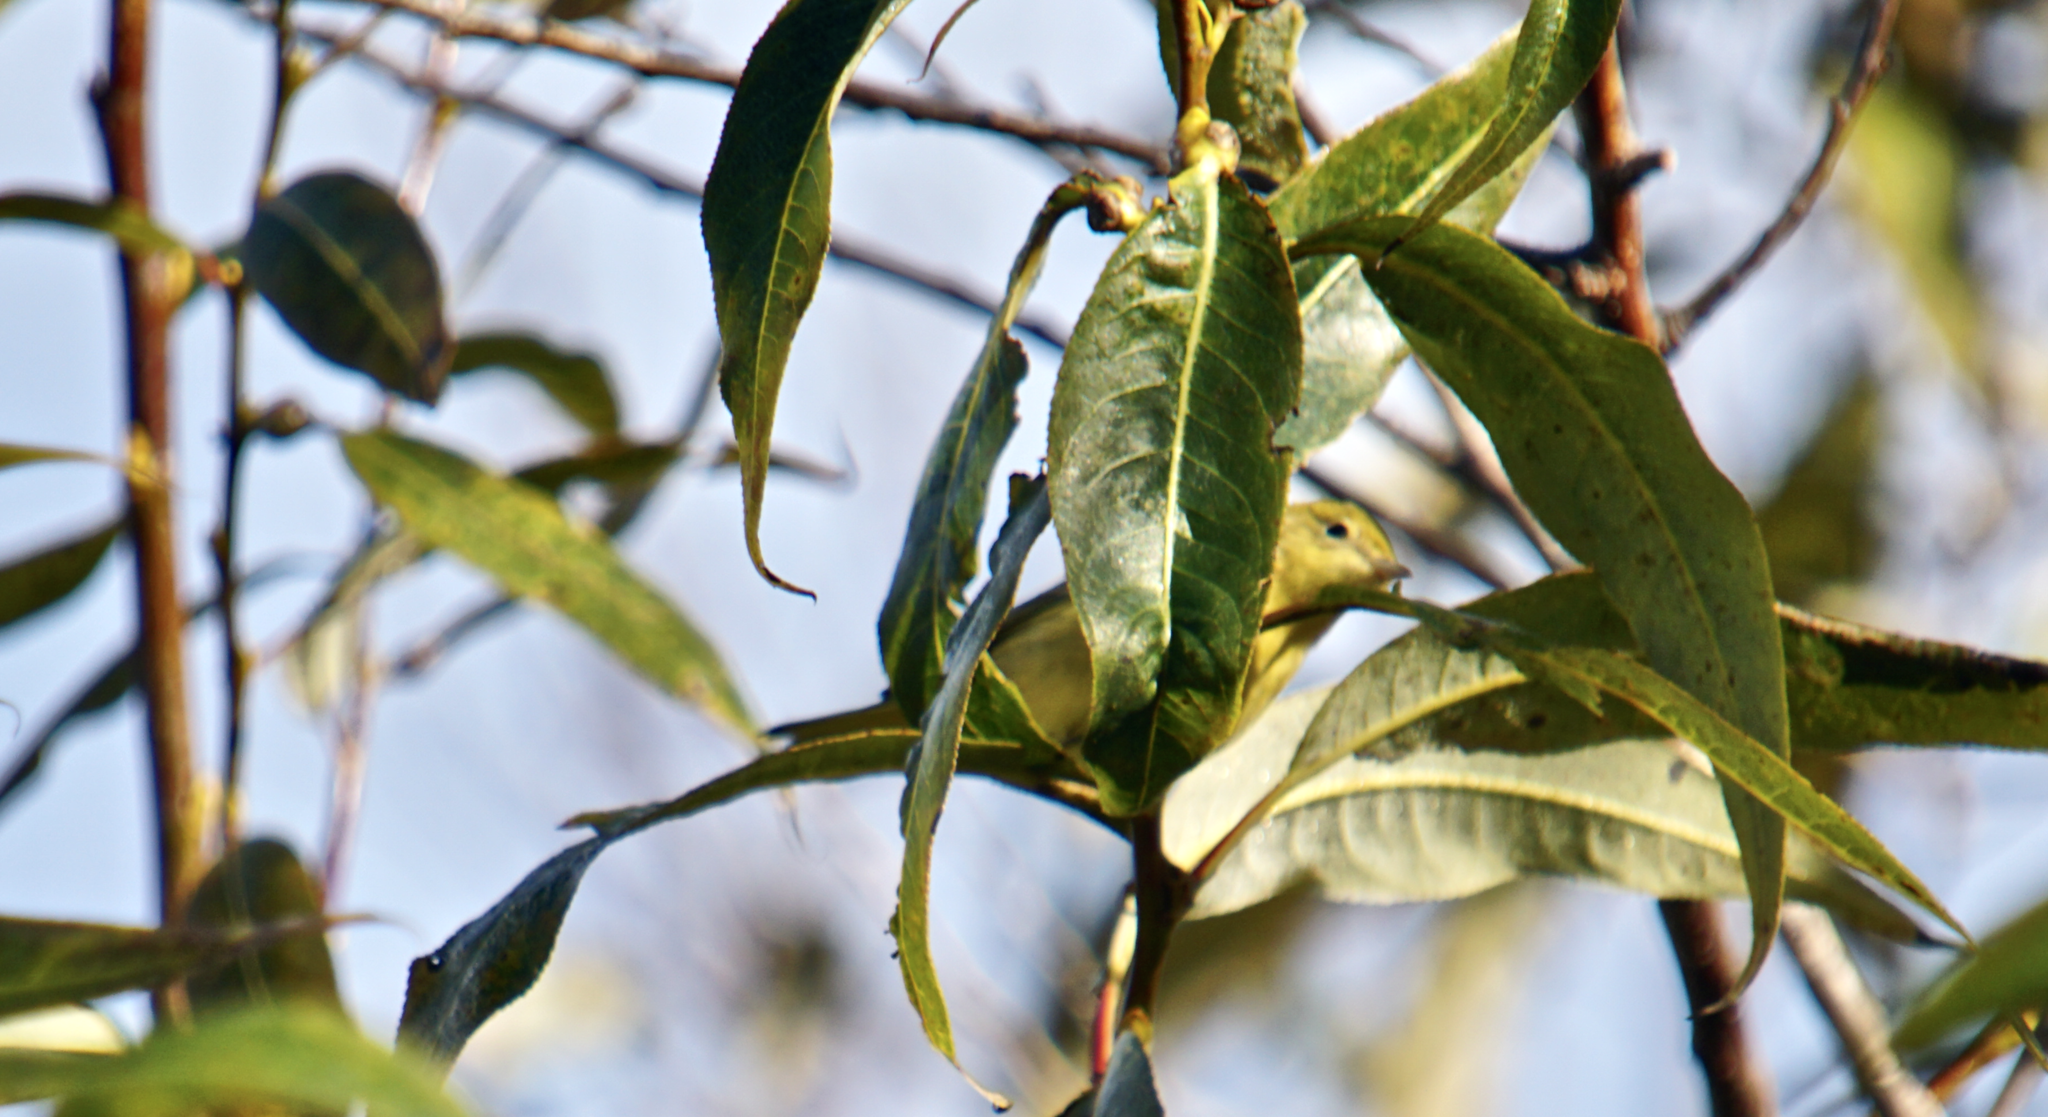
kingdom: Animalia
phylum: Chordata
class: Aves
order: Passeriformes
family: Parulidae
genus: Setophaga
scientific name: Setophaga petechia
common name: Yellow warbler
